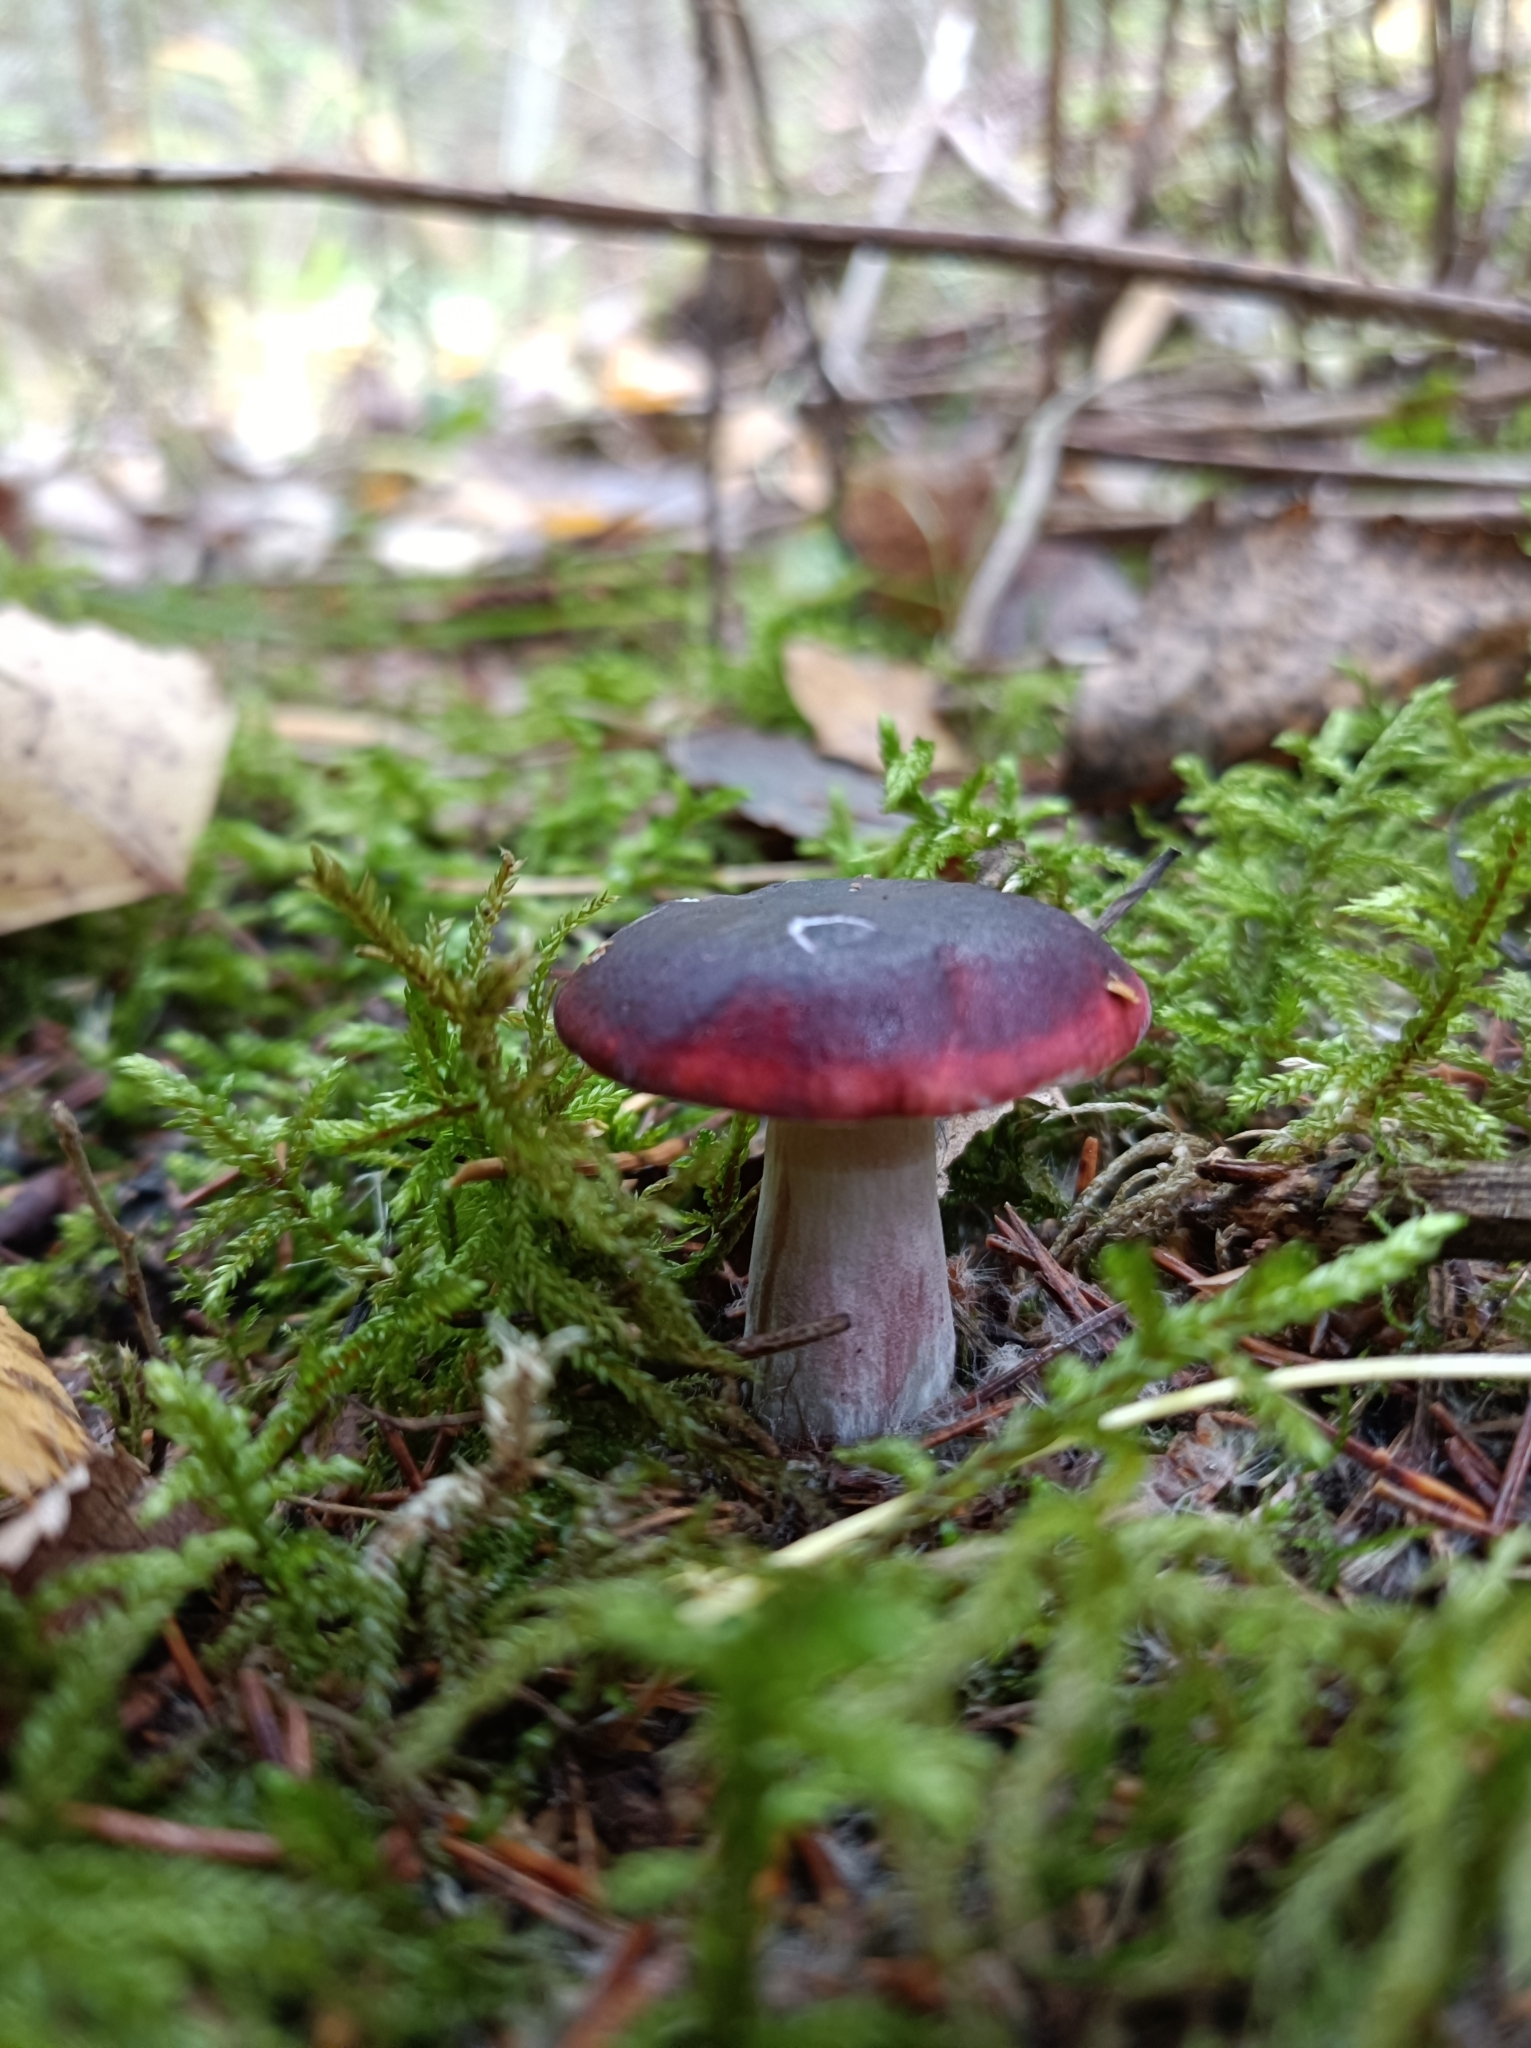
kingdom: Fungi
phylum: Basidiomycota
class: Agaricomycetes
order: Russulales
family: Russulaceae
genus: Russula
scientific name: Russula
